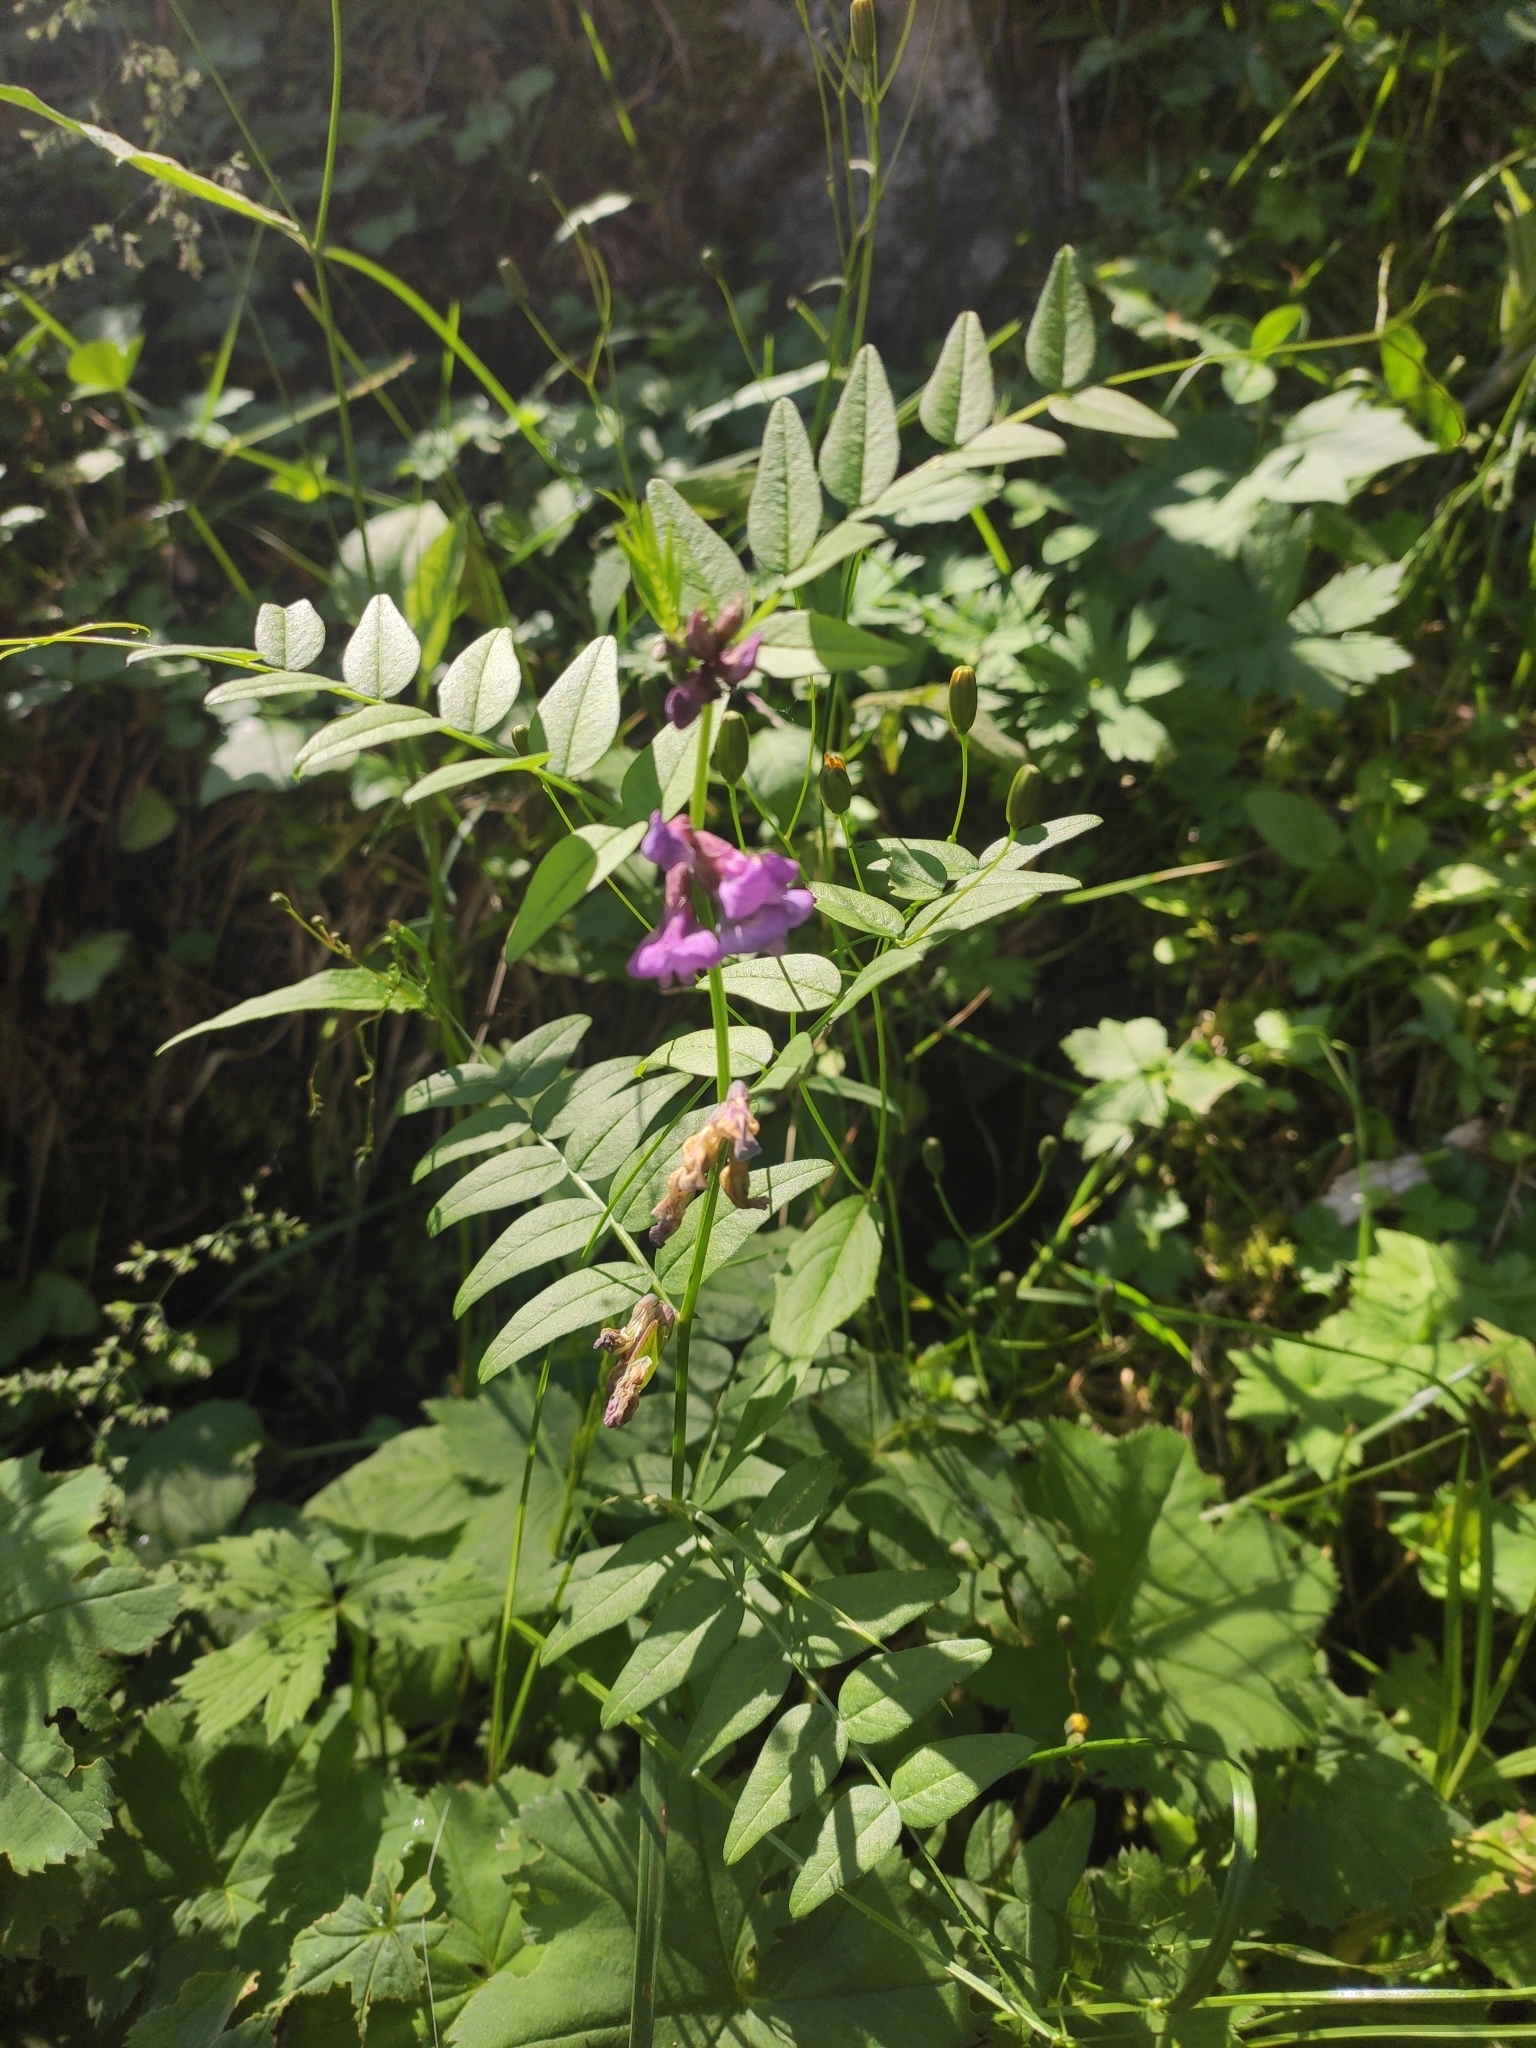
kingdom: Plantae
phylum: Tracheophyta
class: Magnoliopsida
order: Fabales
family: Fabaceae
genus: Vicia
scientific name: Vicia sepium
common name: Bush vetch
